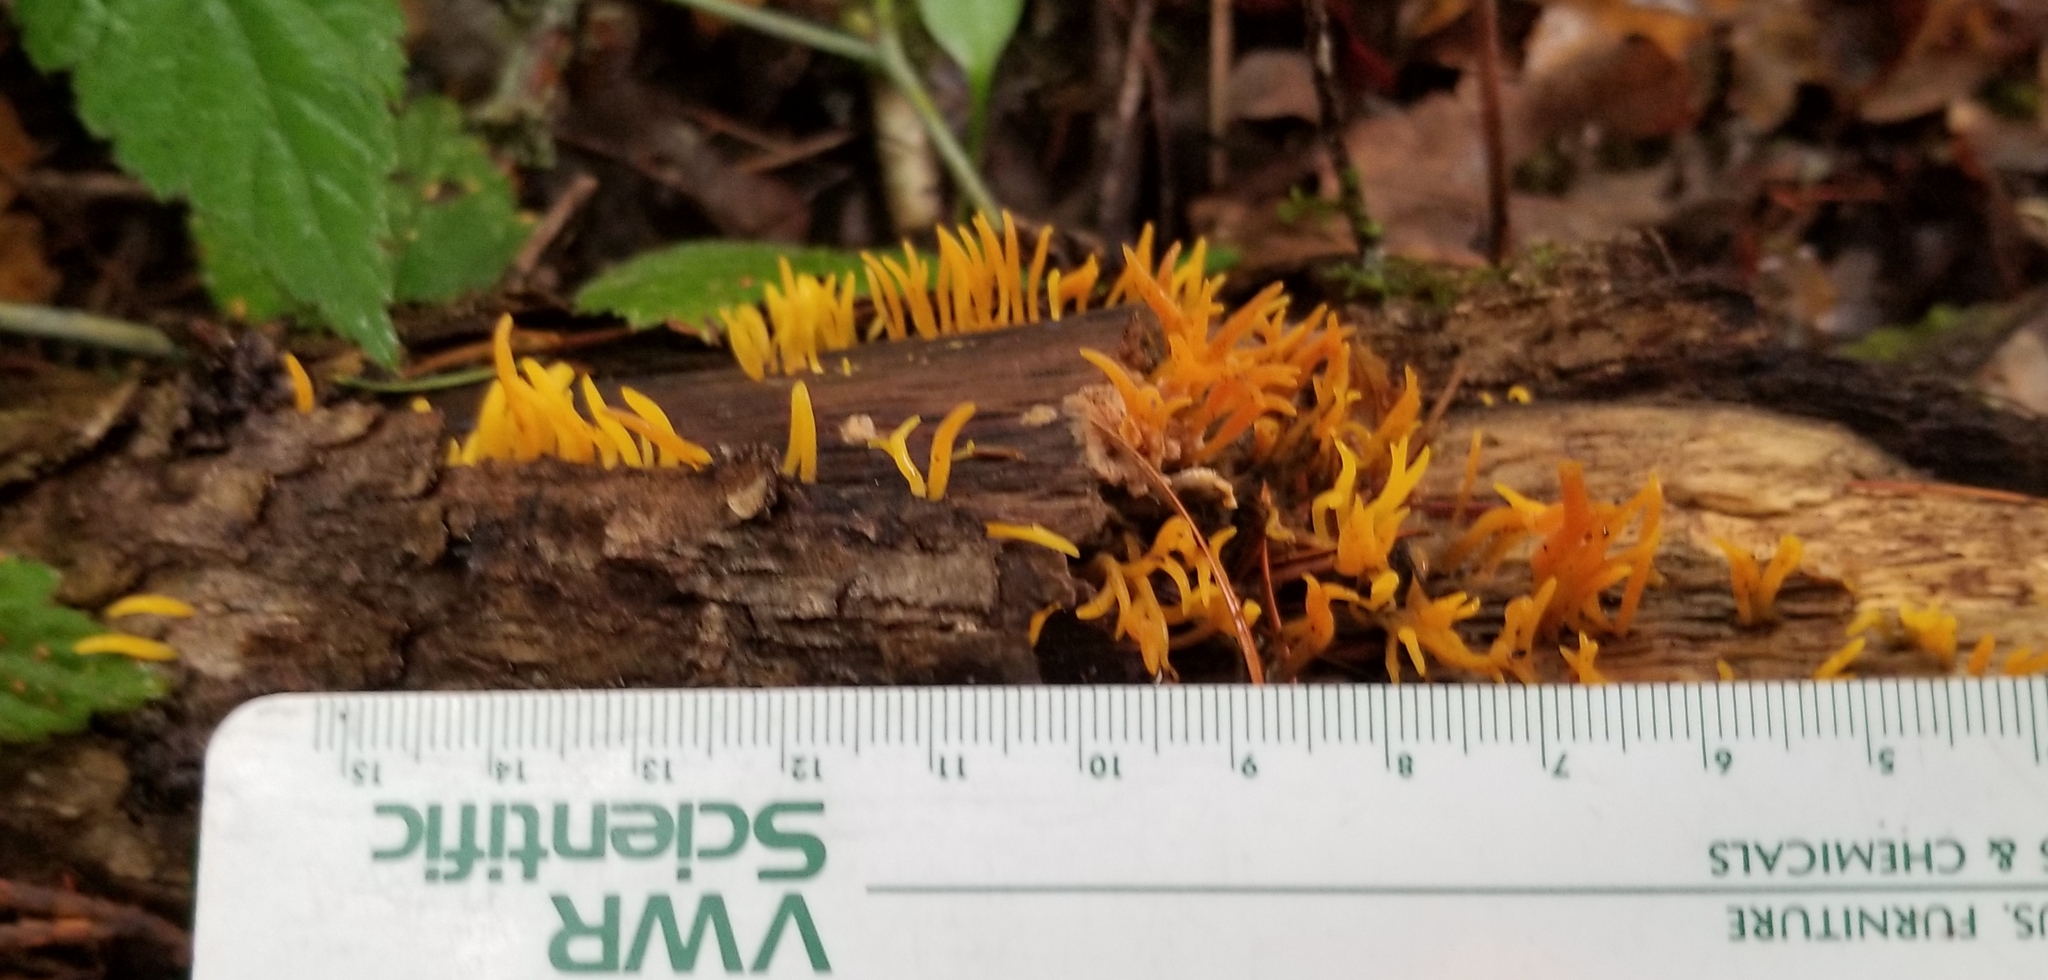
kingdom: Fungi
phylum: Basidiomycota
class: Dacrymycetes
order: Dacrymycetales
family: Dacrymycetaceae
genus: Calocera
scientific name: Calocera cornea
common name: Small stagshorn
